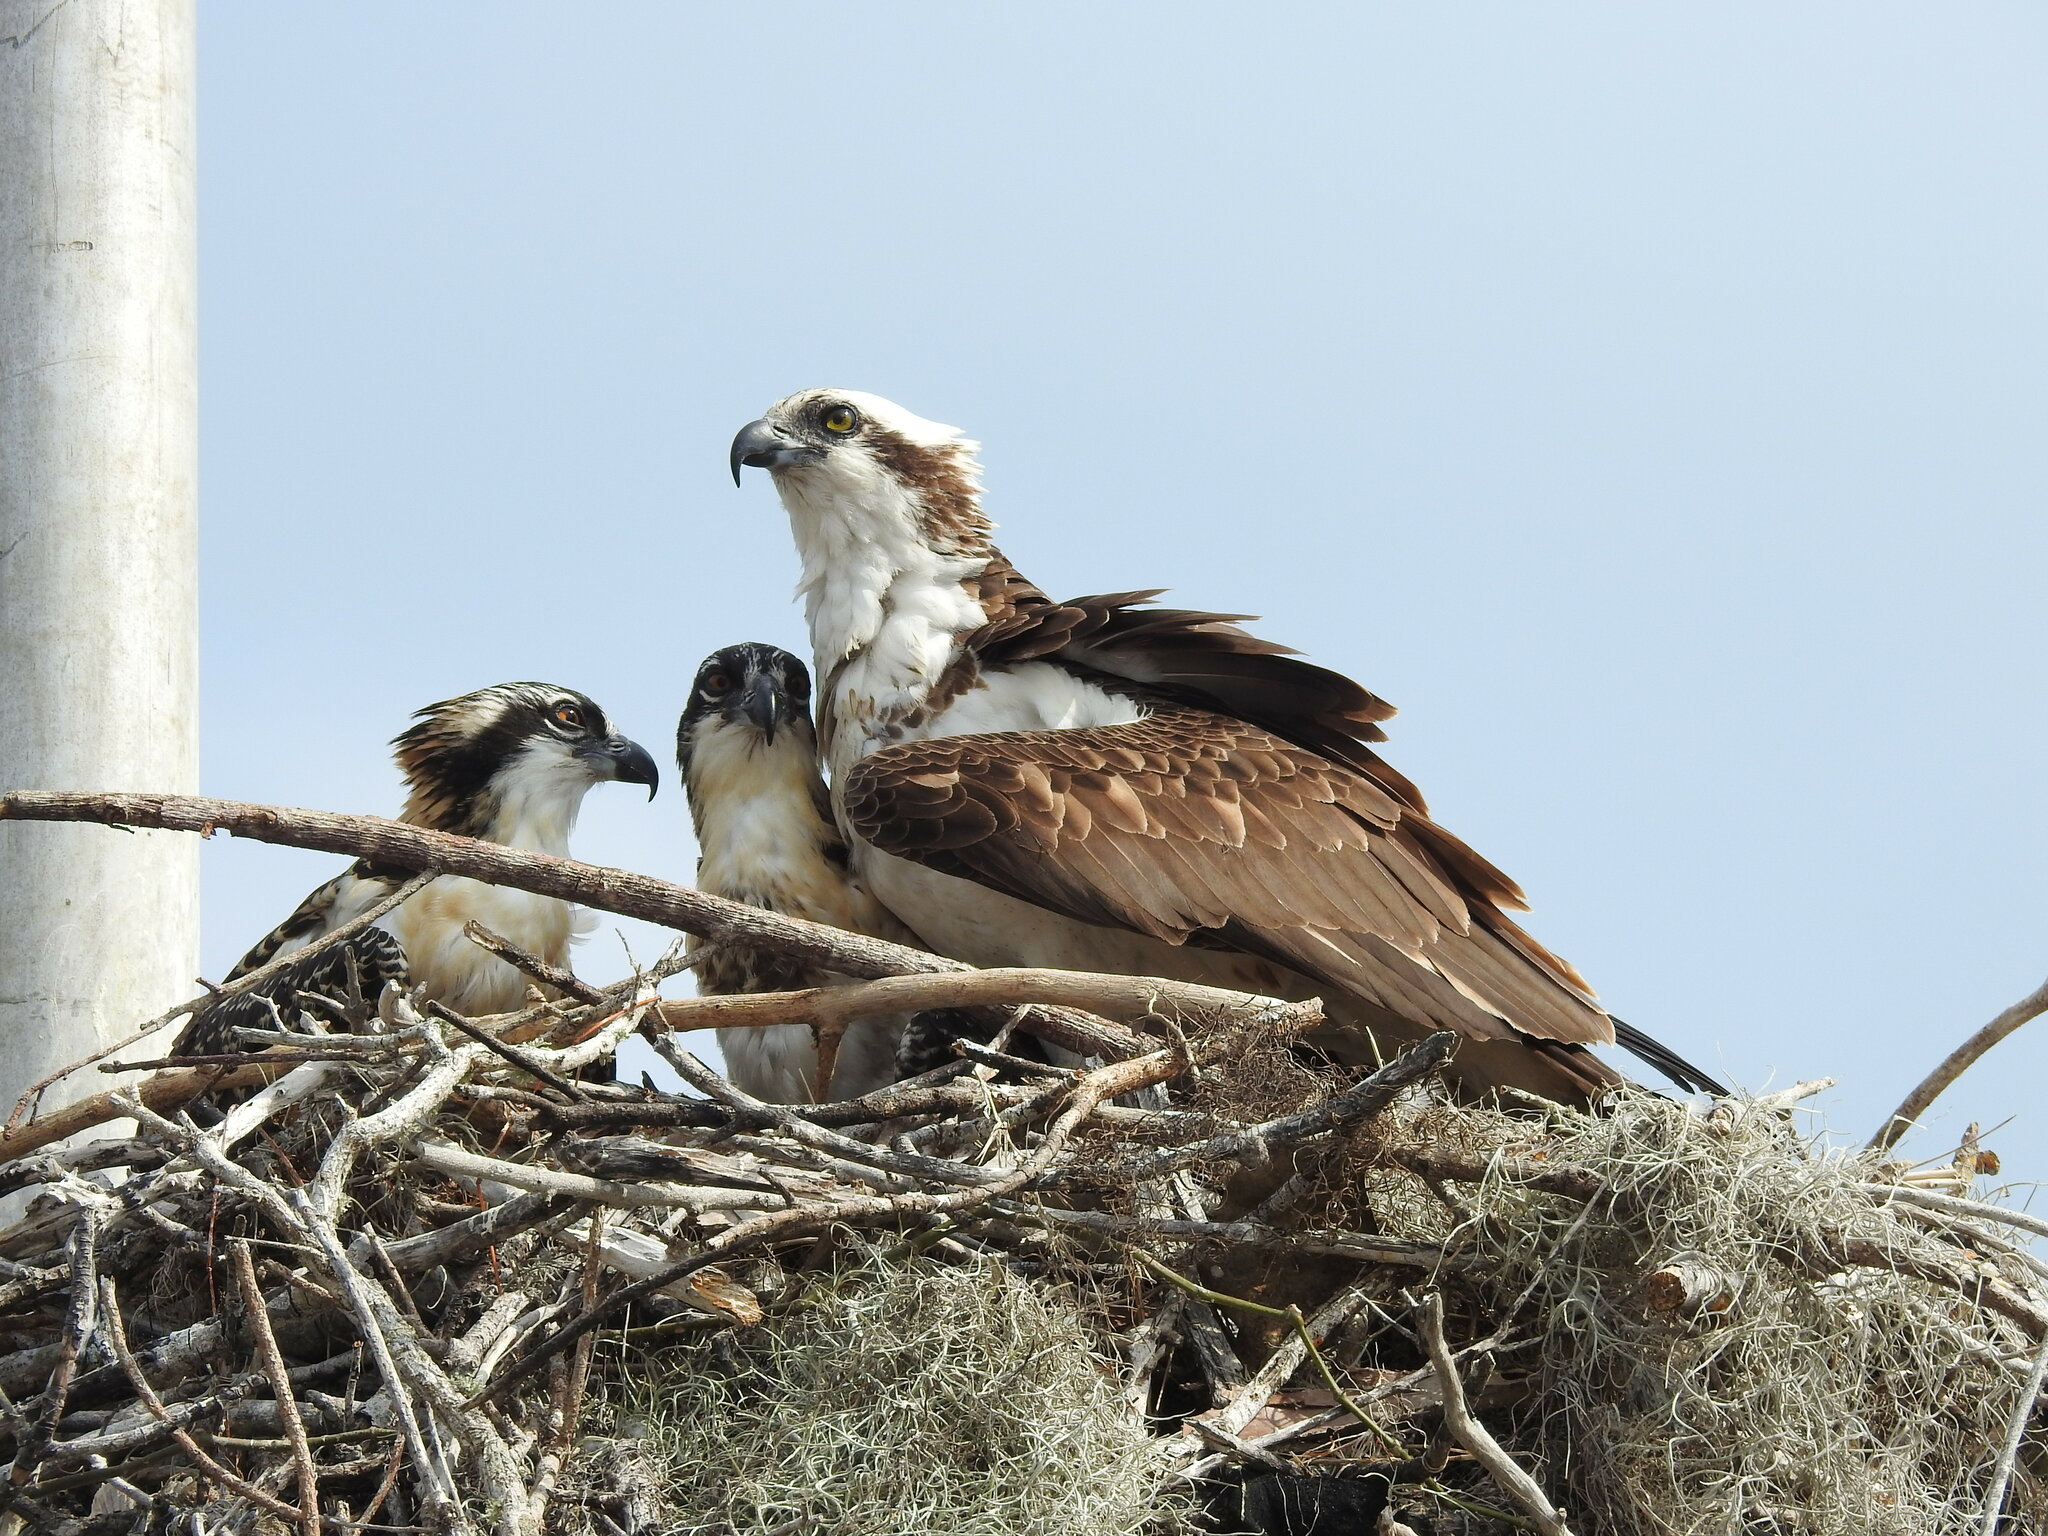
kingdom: Animalia
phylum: Chordata
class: Aves
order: Accipitriformes
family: Pandionidae
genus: Pandion
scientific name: Pandion haliaetus
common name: Osprey
